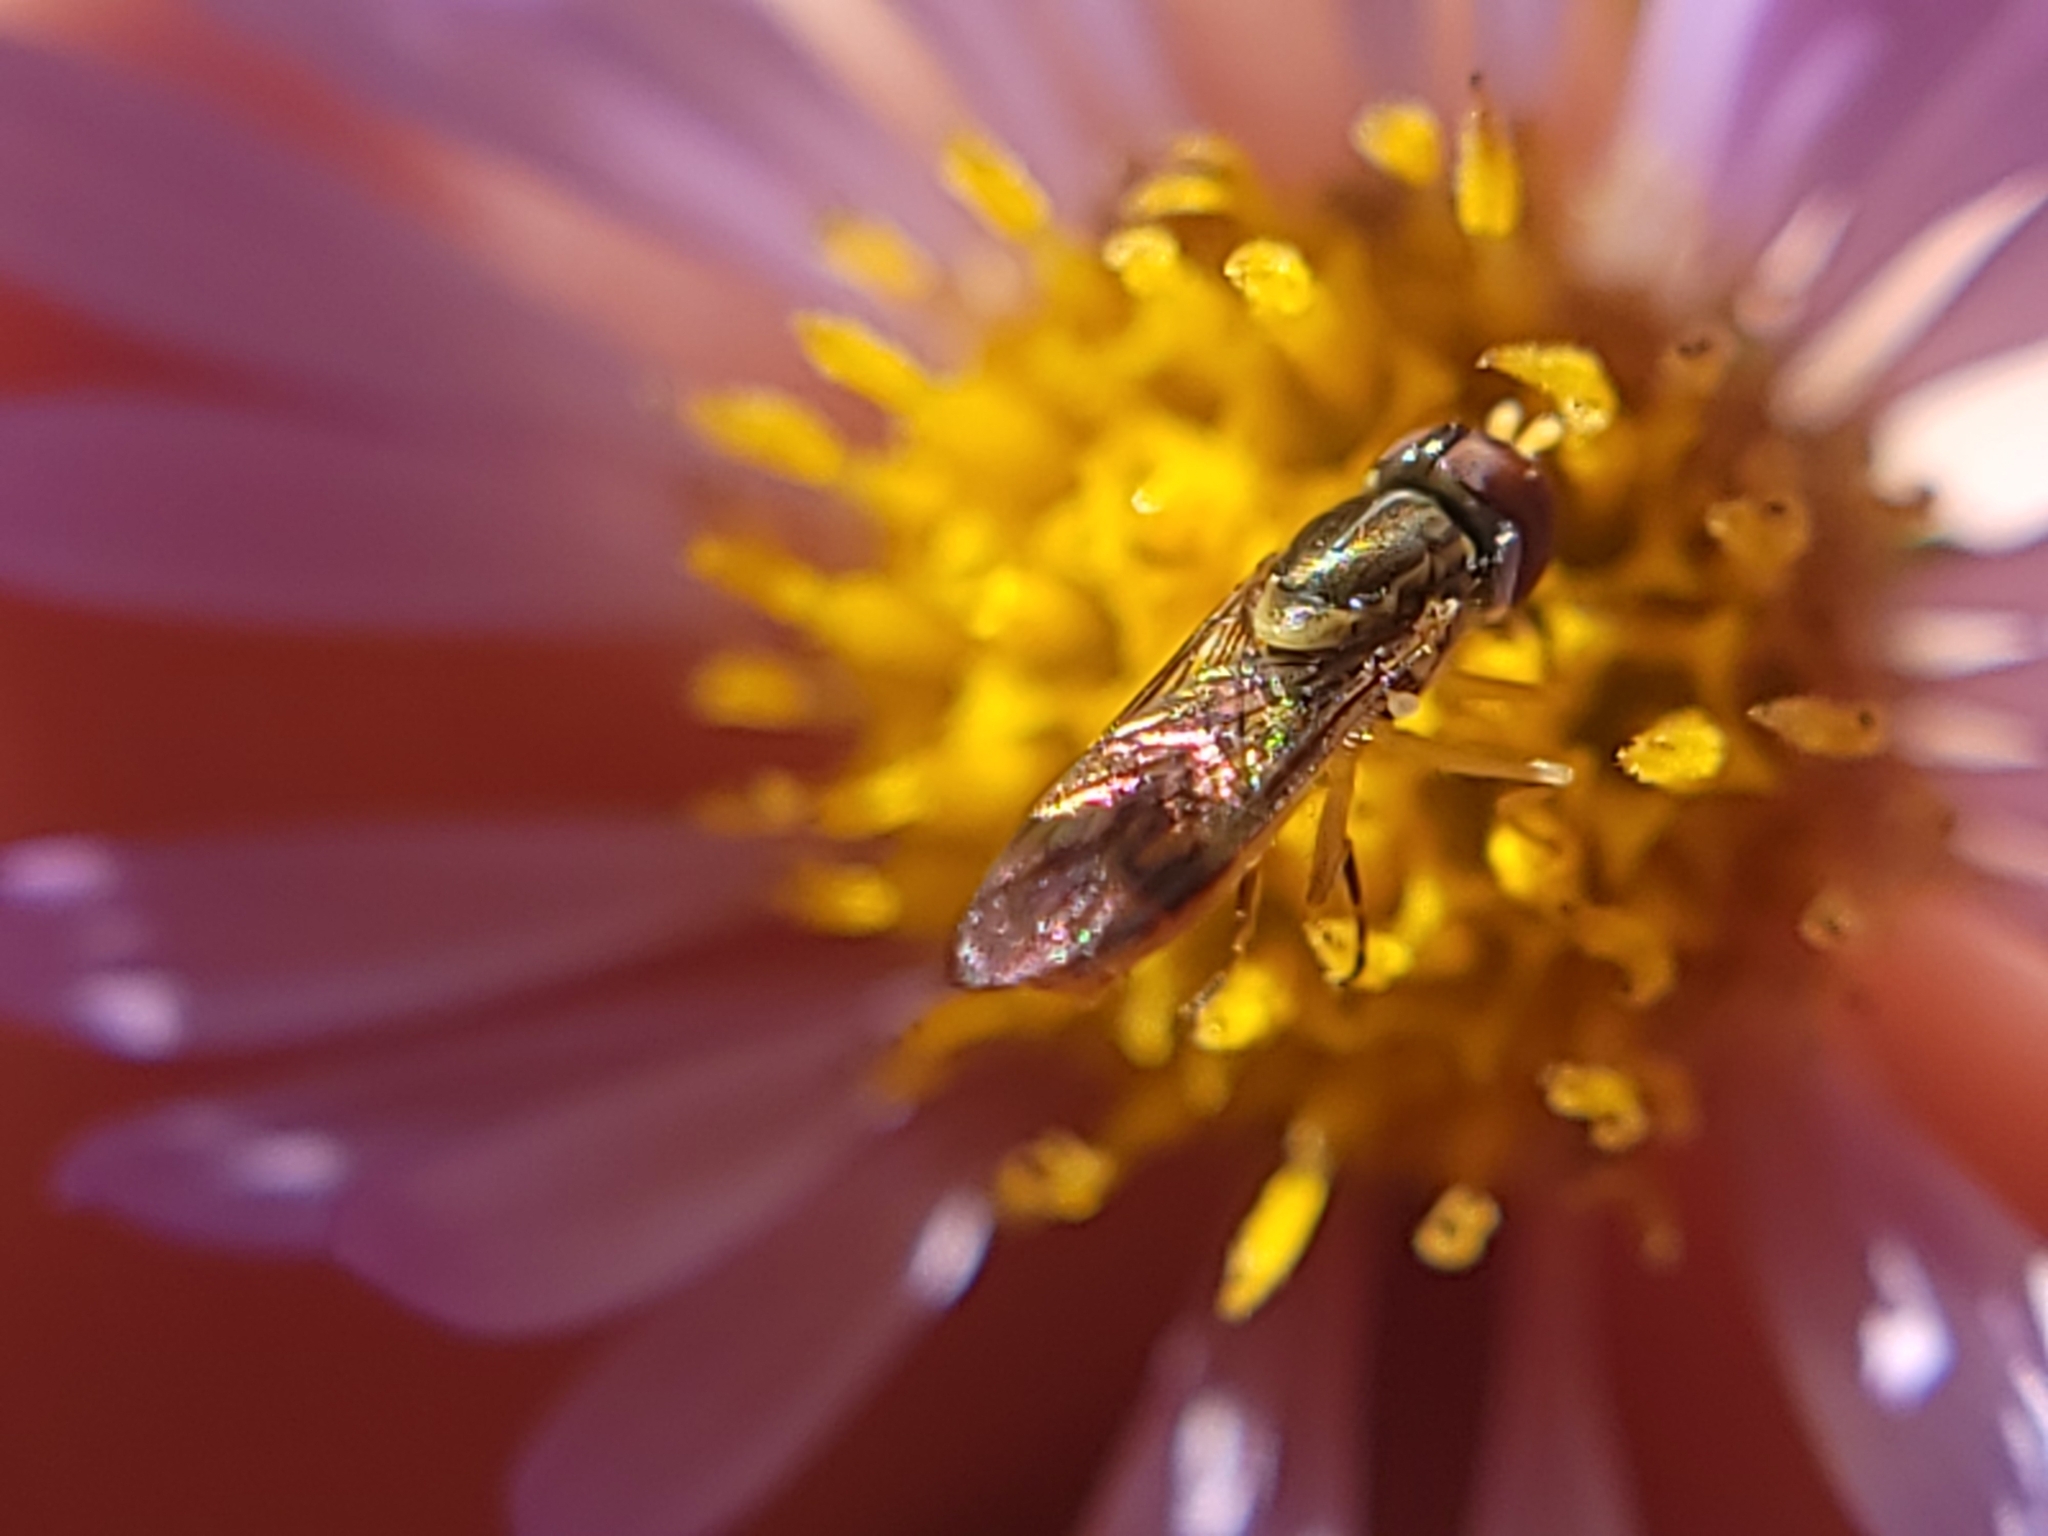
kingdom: Animalia
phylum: Arthropoda
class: Insecta
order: Diptera
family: Syrphidae
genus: Toxomerus
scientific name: Toxomerus marginatus
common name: Syrphid fly
